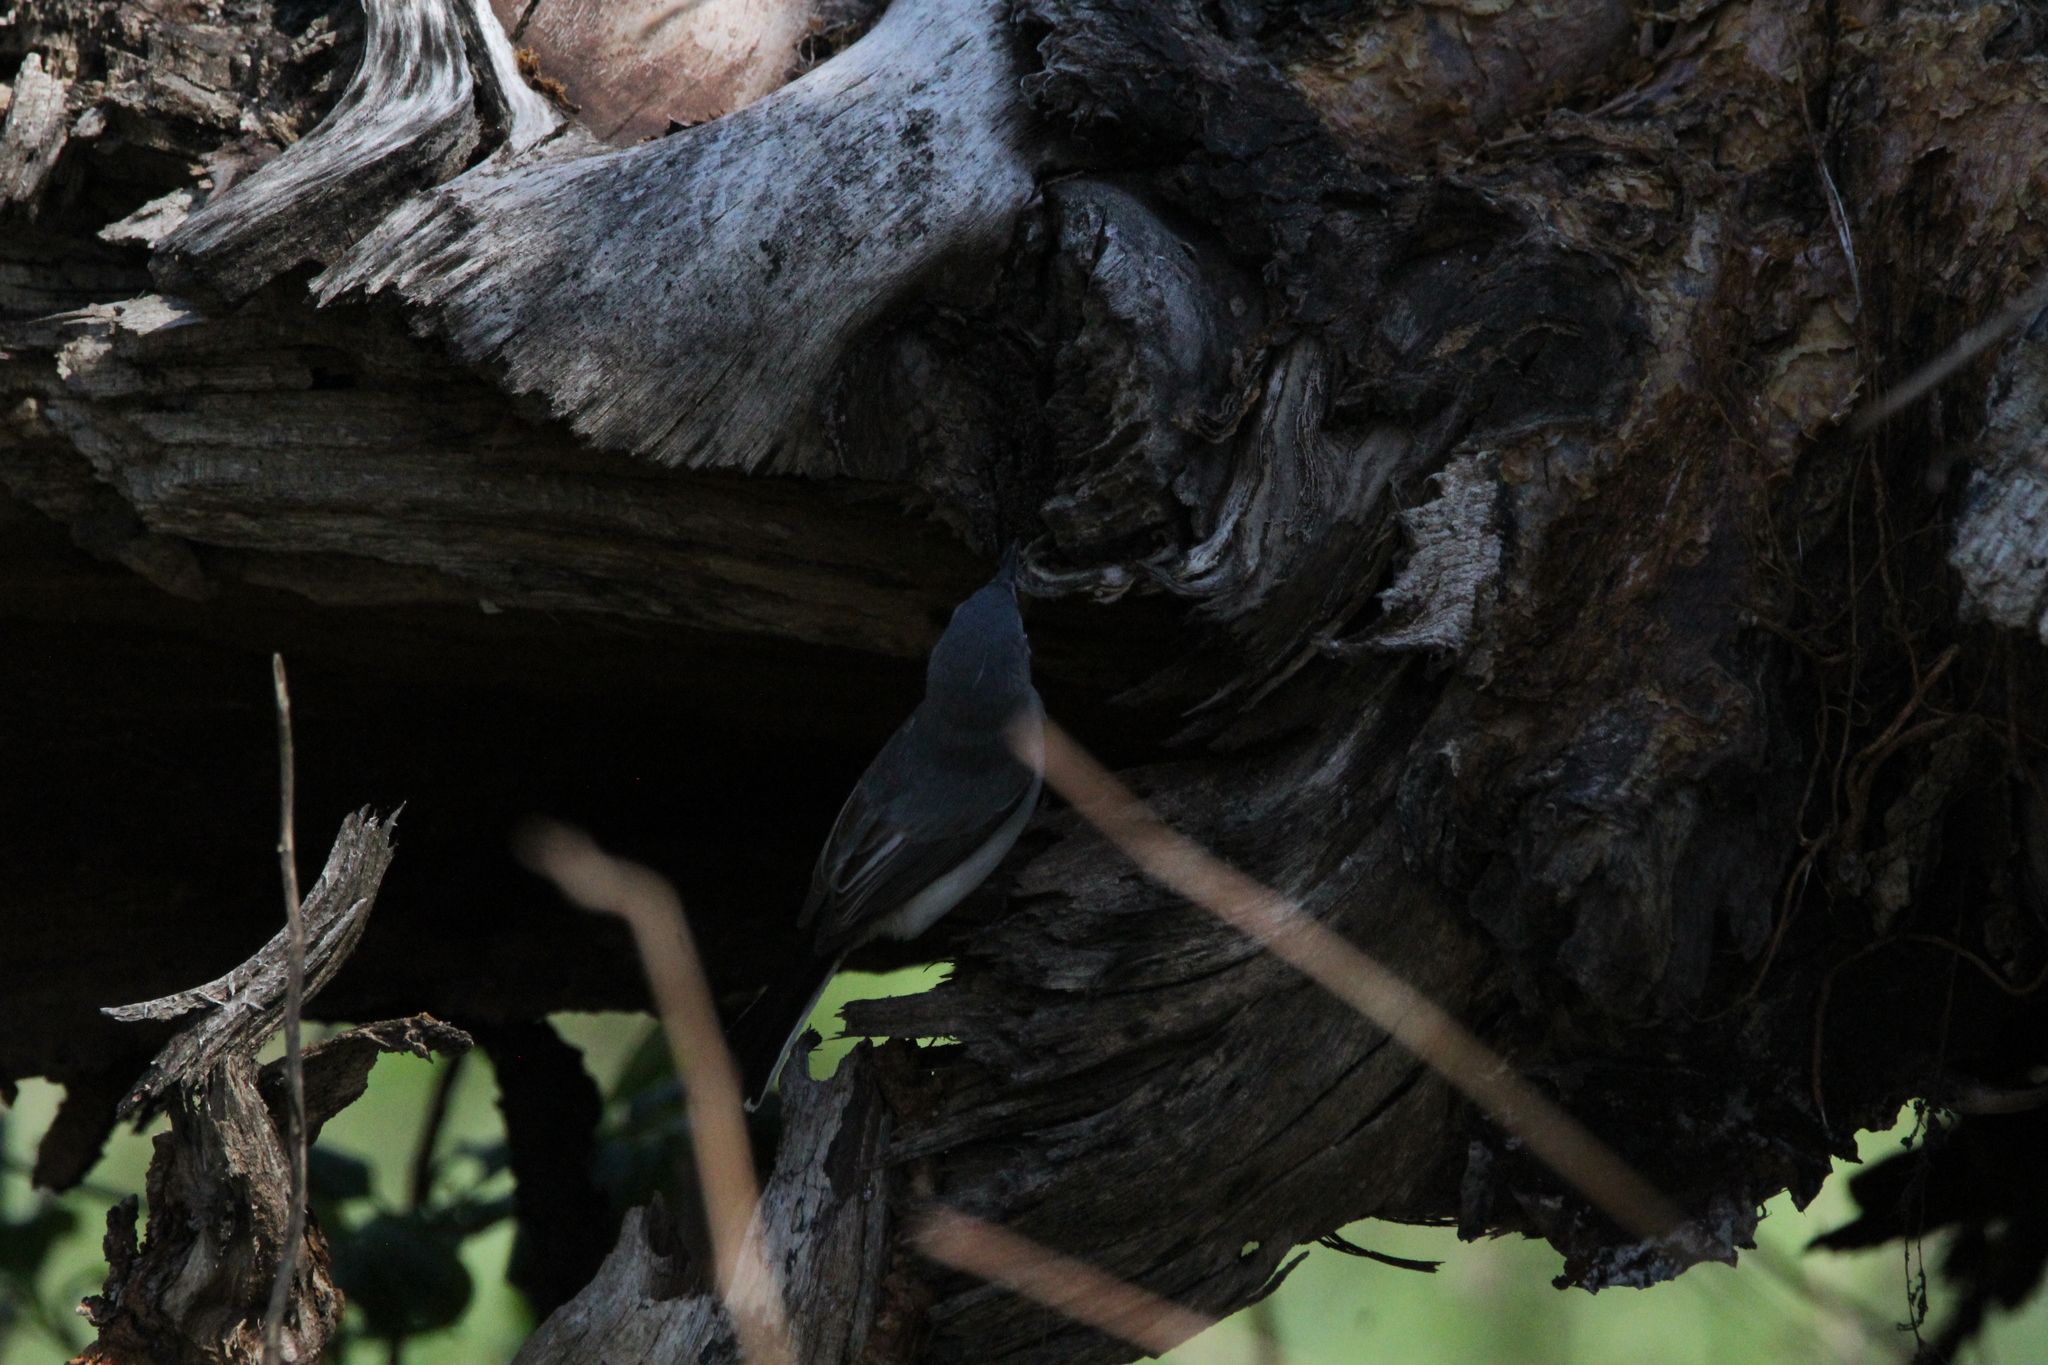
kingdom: Animalia
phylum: Chordata
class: Aves
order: Passeriformes
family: Polioptilidae
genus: Polioptila
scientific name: Polioptila caerulea
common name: Blue-gray gnatcatcher
